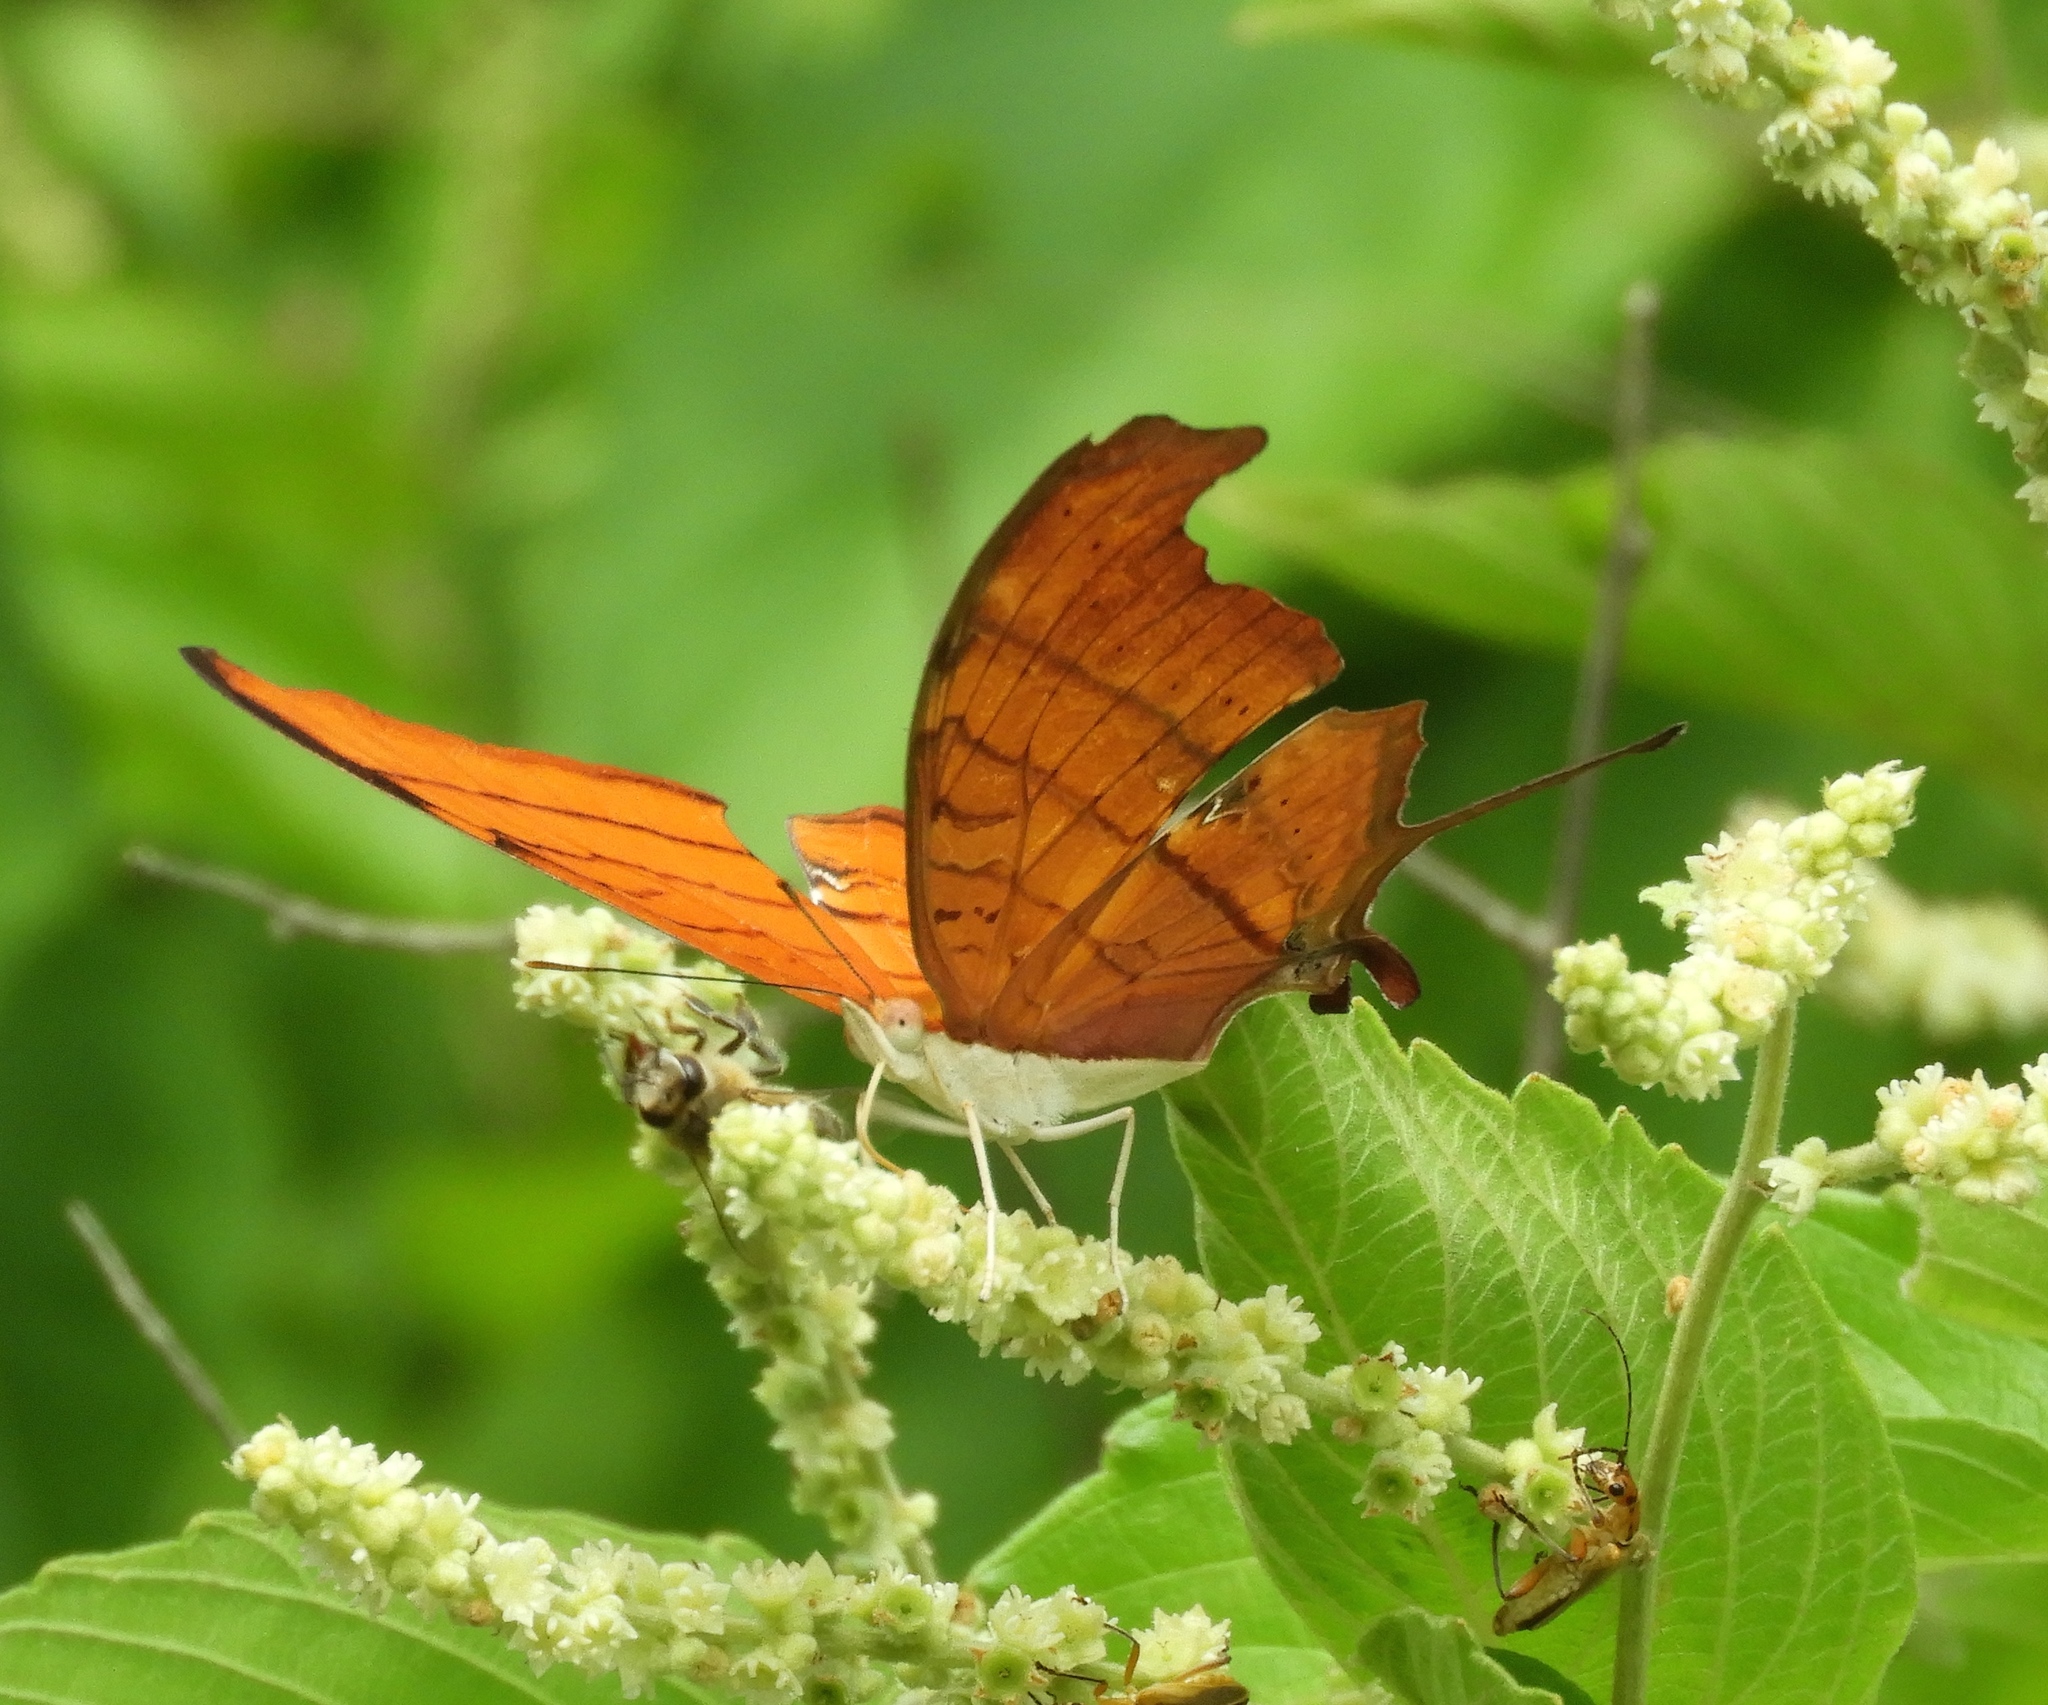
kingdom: Animalia
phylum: Arthropoda
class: Insecta
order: Lepidoptera
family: Nymphalidae
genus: Marpesia
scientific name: Marpesia petreus
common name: Red dagger wing
